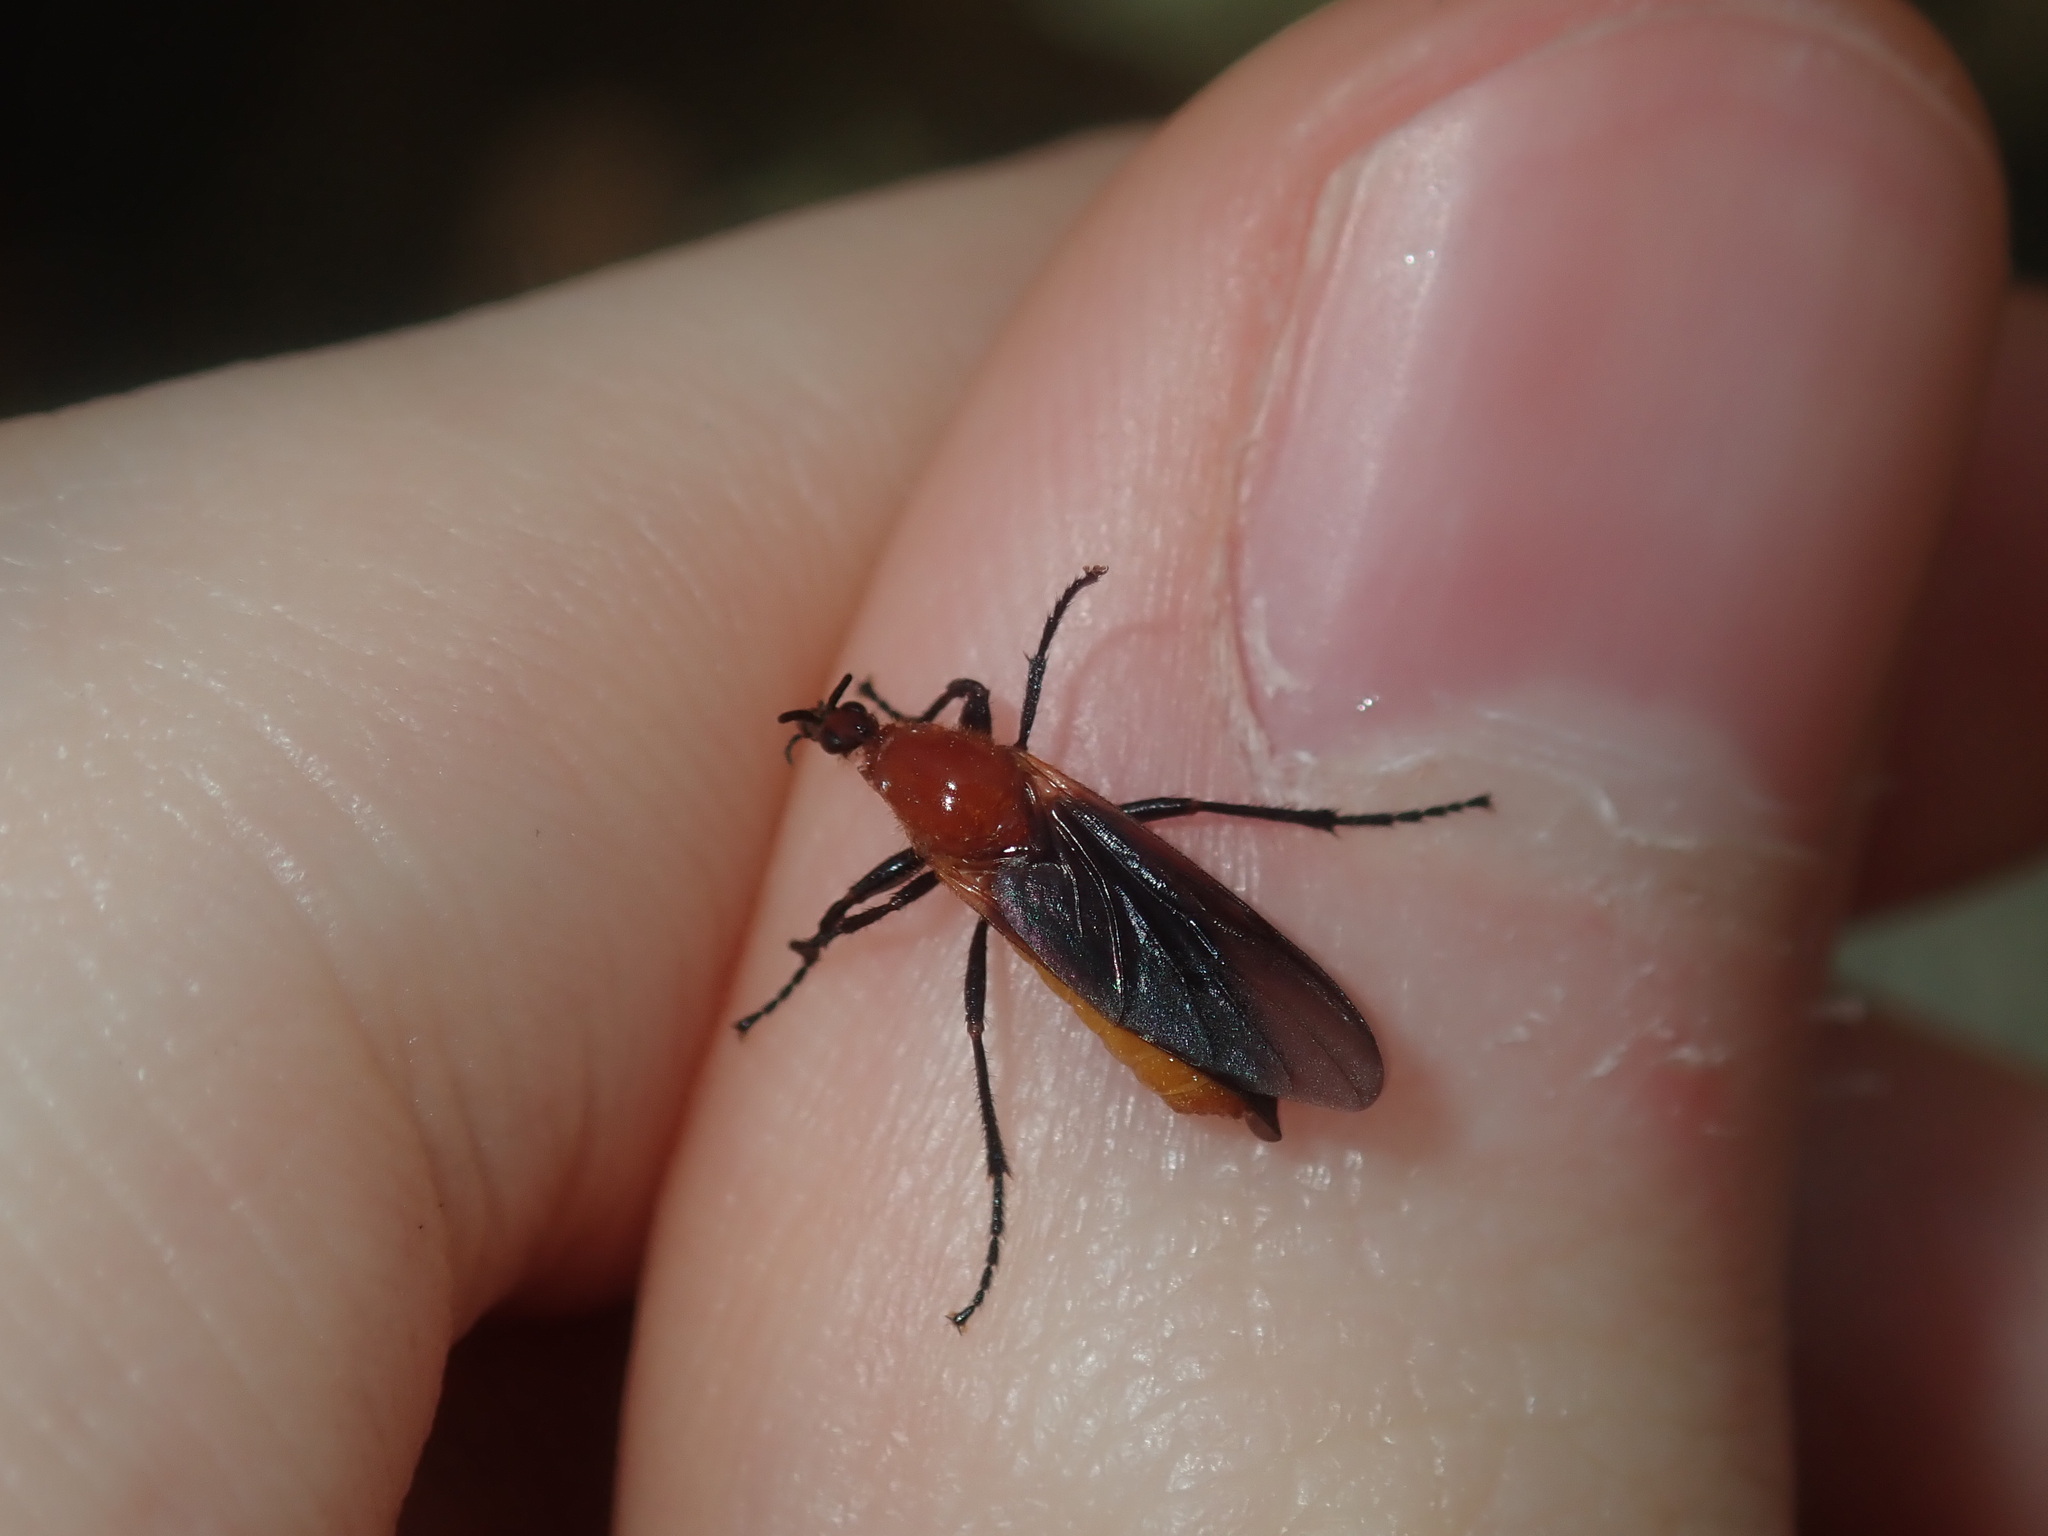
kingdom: Animalia
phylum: Arthropoda
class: Insecta
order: Diptera
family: Bibionidae
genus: Bibio
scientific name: Bibio imitator
